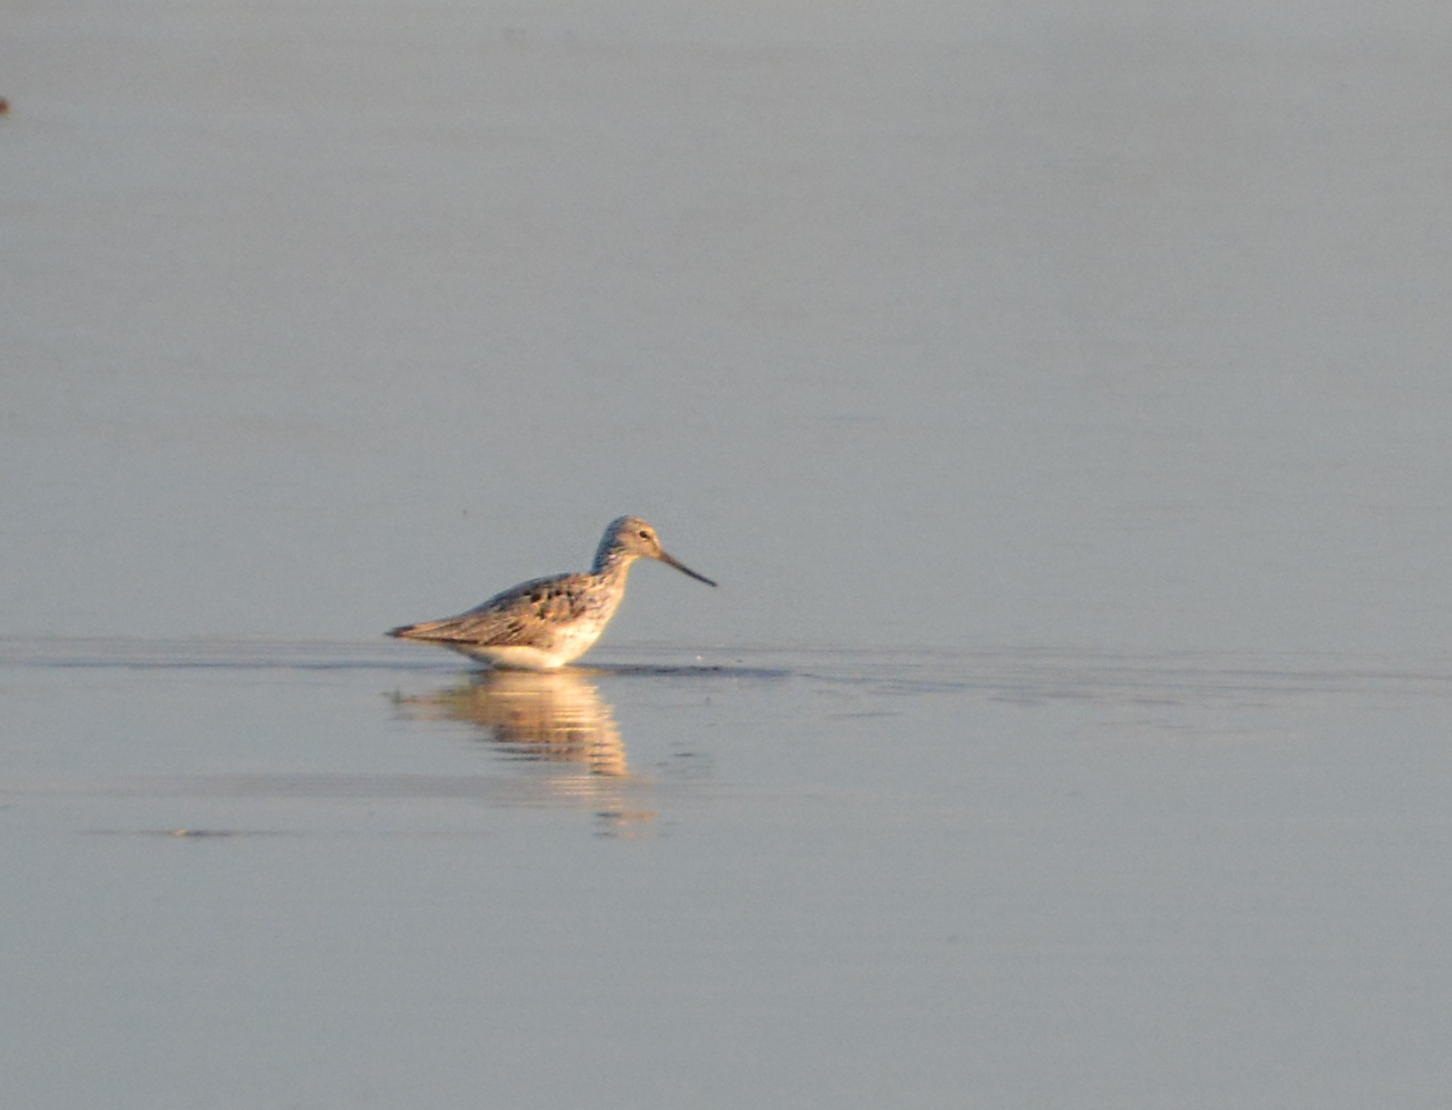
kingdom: Animalia
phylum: Chordata
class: Aves
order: Charadriiformes
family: Scolopacidae
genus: Tringa
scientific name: Tringa nebularia
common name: Common greenshank
